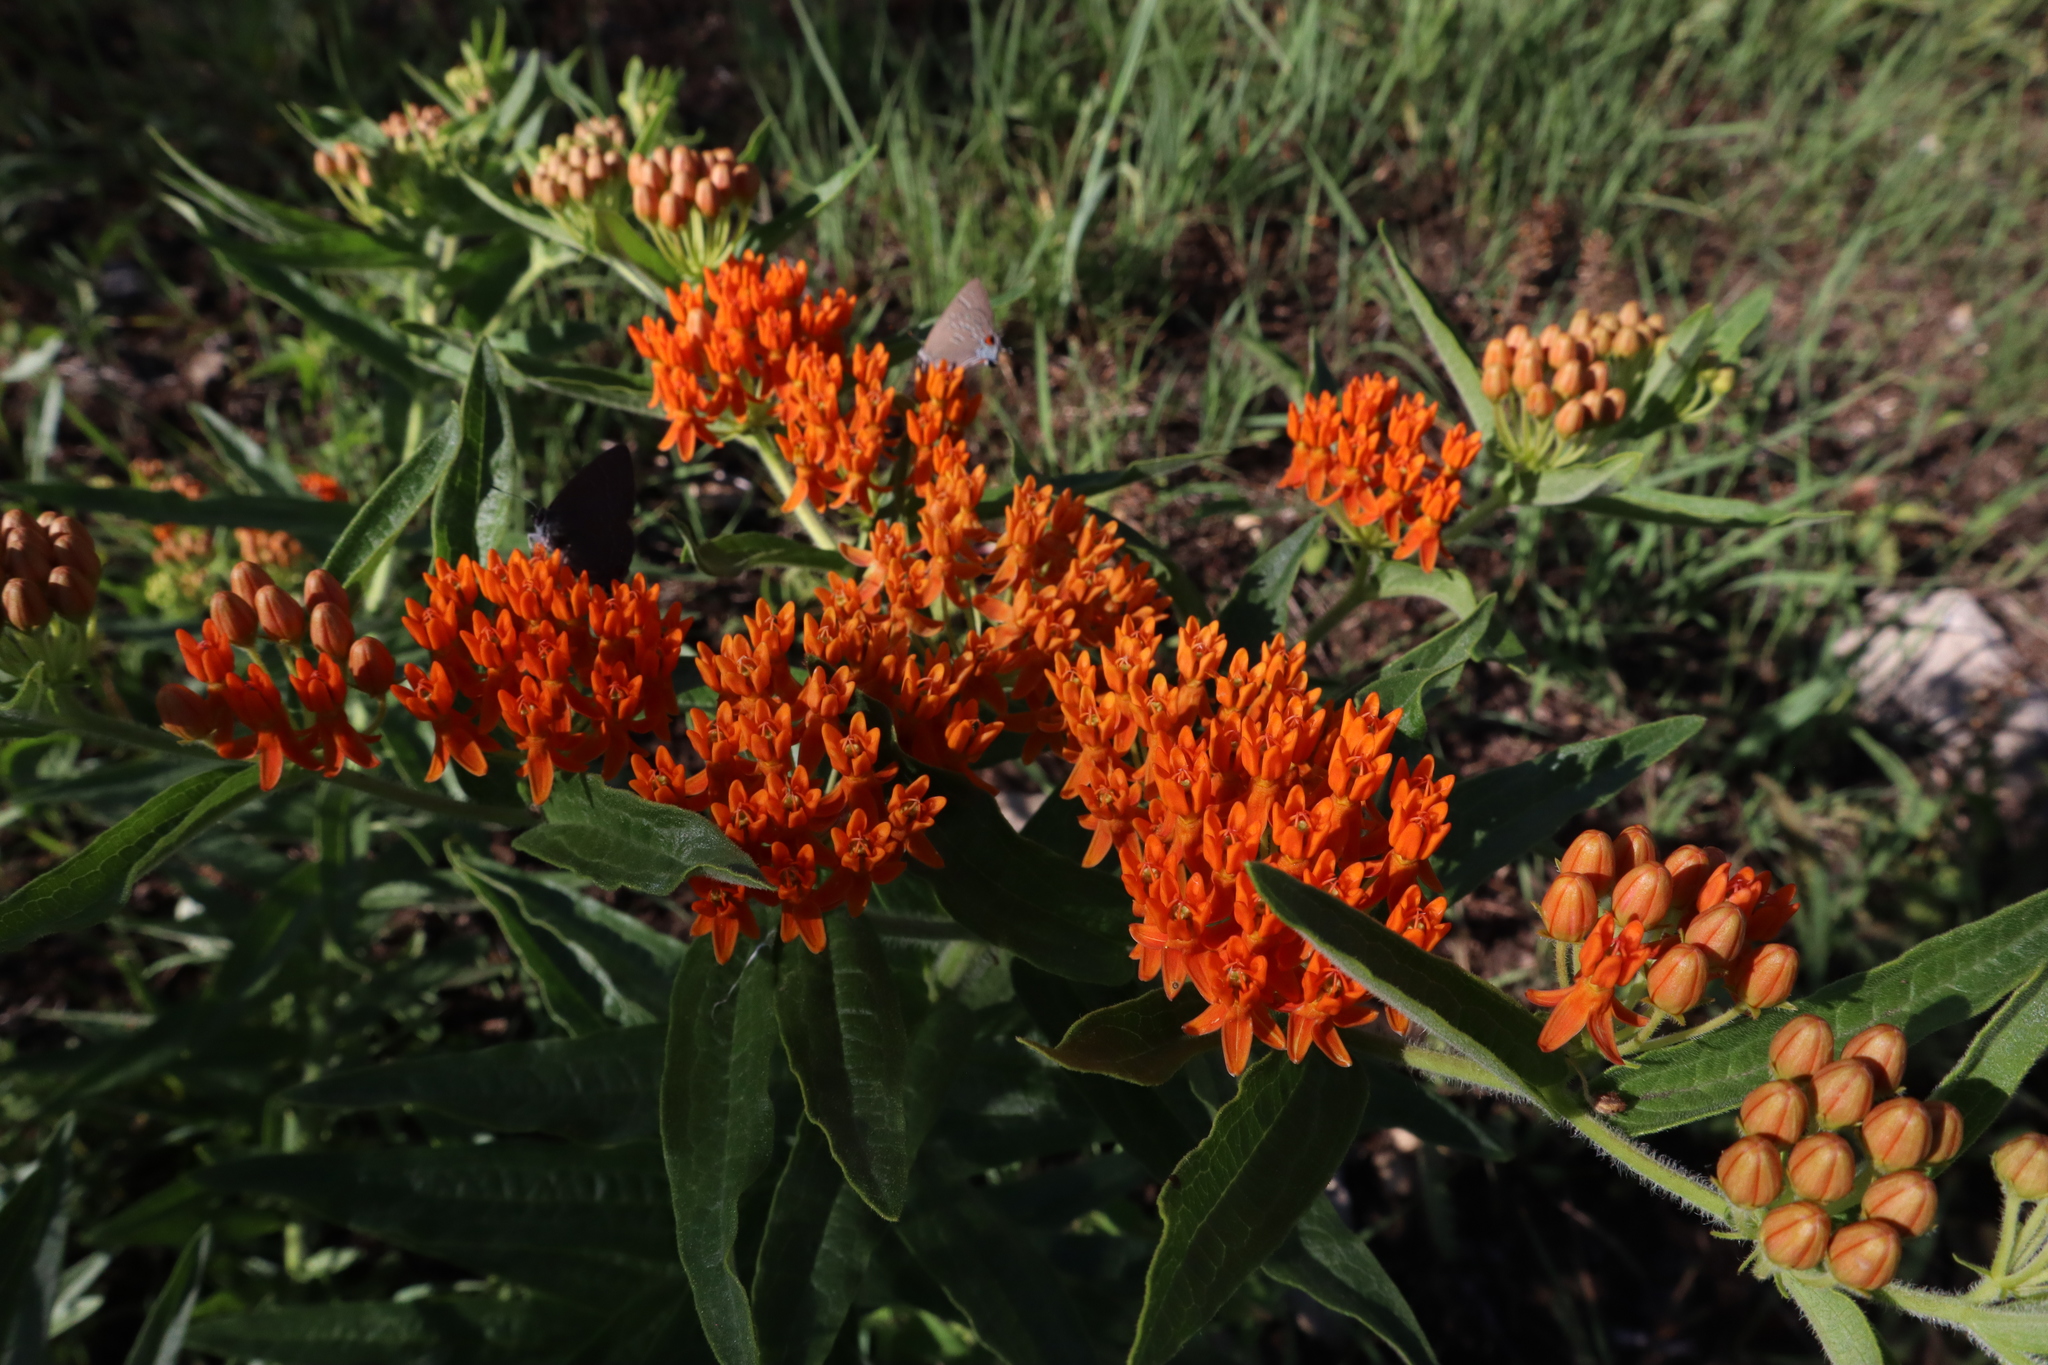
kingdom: Plantae
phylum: Tracheophyta
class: Magnoliopsida
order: Gentianales
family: Apocynaceae
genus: Asclepias
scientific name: Asclepias tuberosa
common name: Butterfly milkweed
